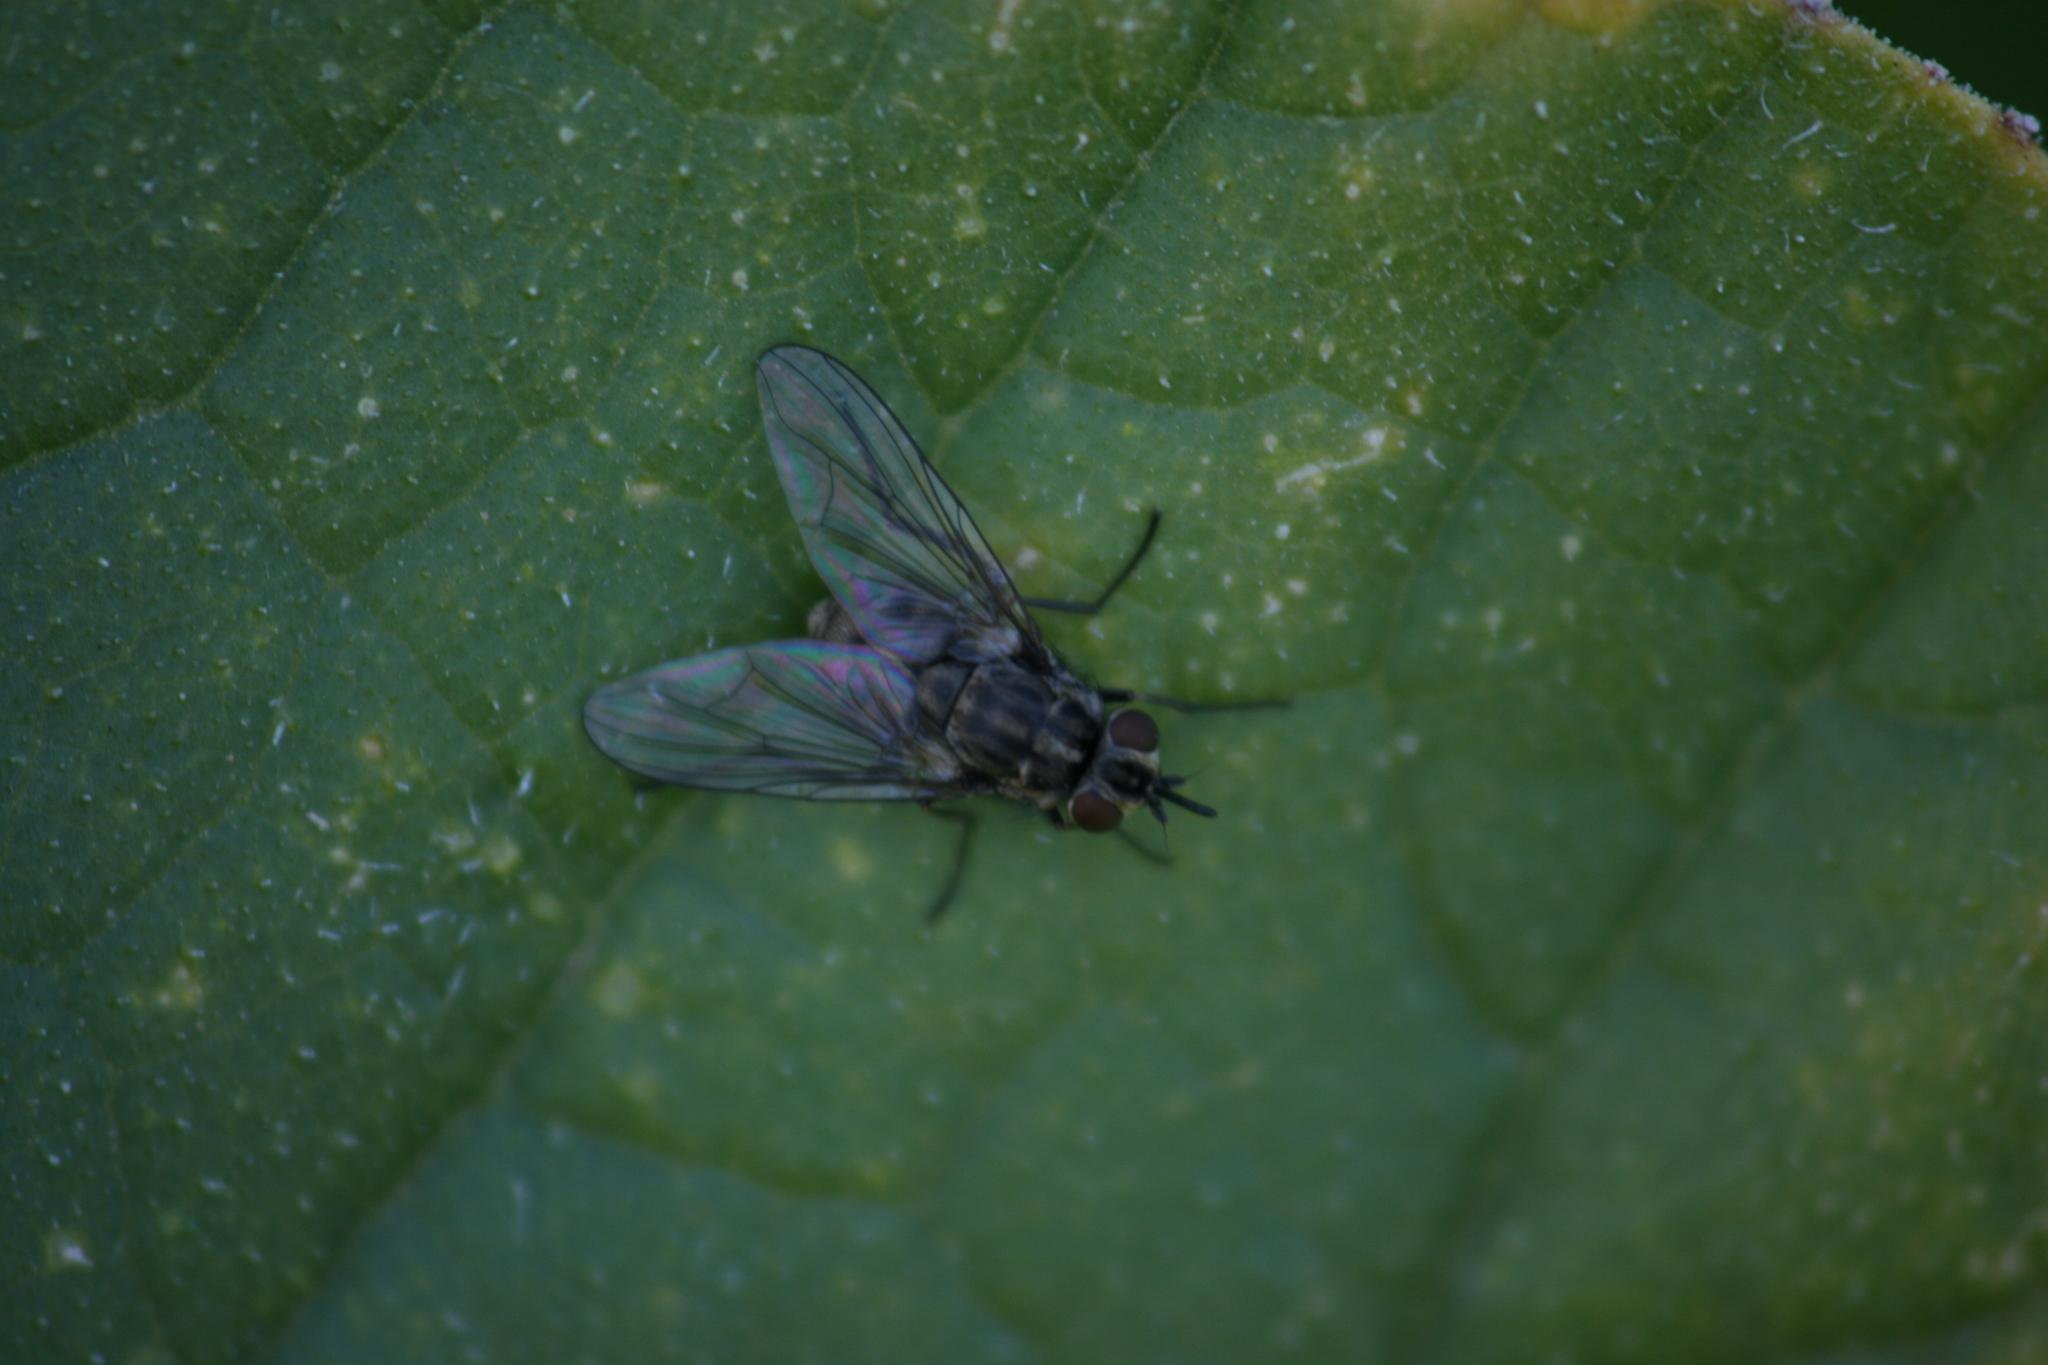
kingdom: Animalia
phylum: Arthropoda
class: Insecta
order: Diptera
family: Muscidae
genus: Stomoxys
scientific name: Stomoxys calcitrans
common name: Stable fly
